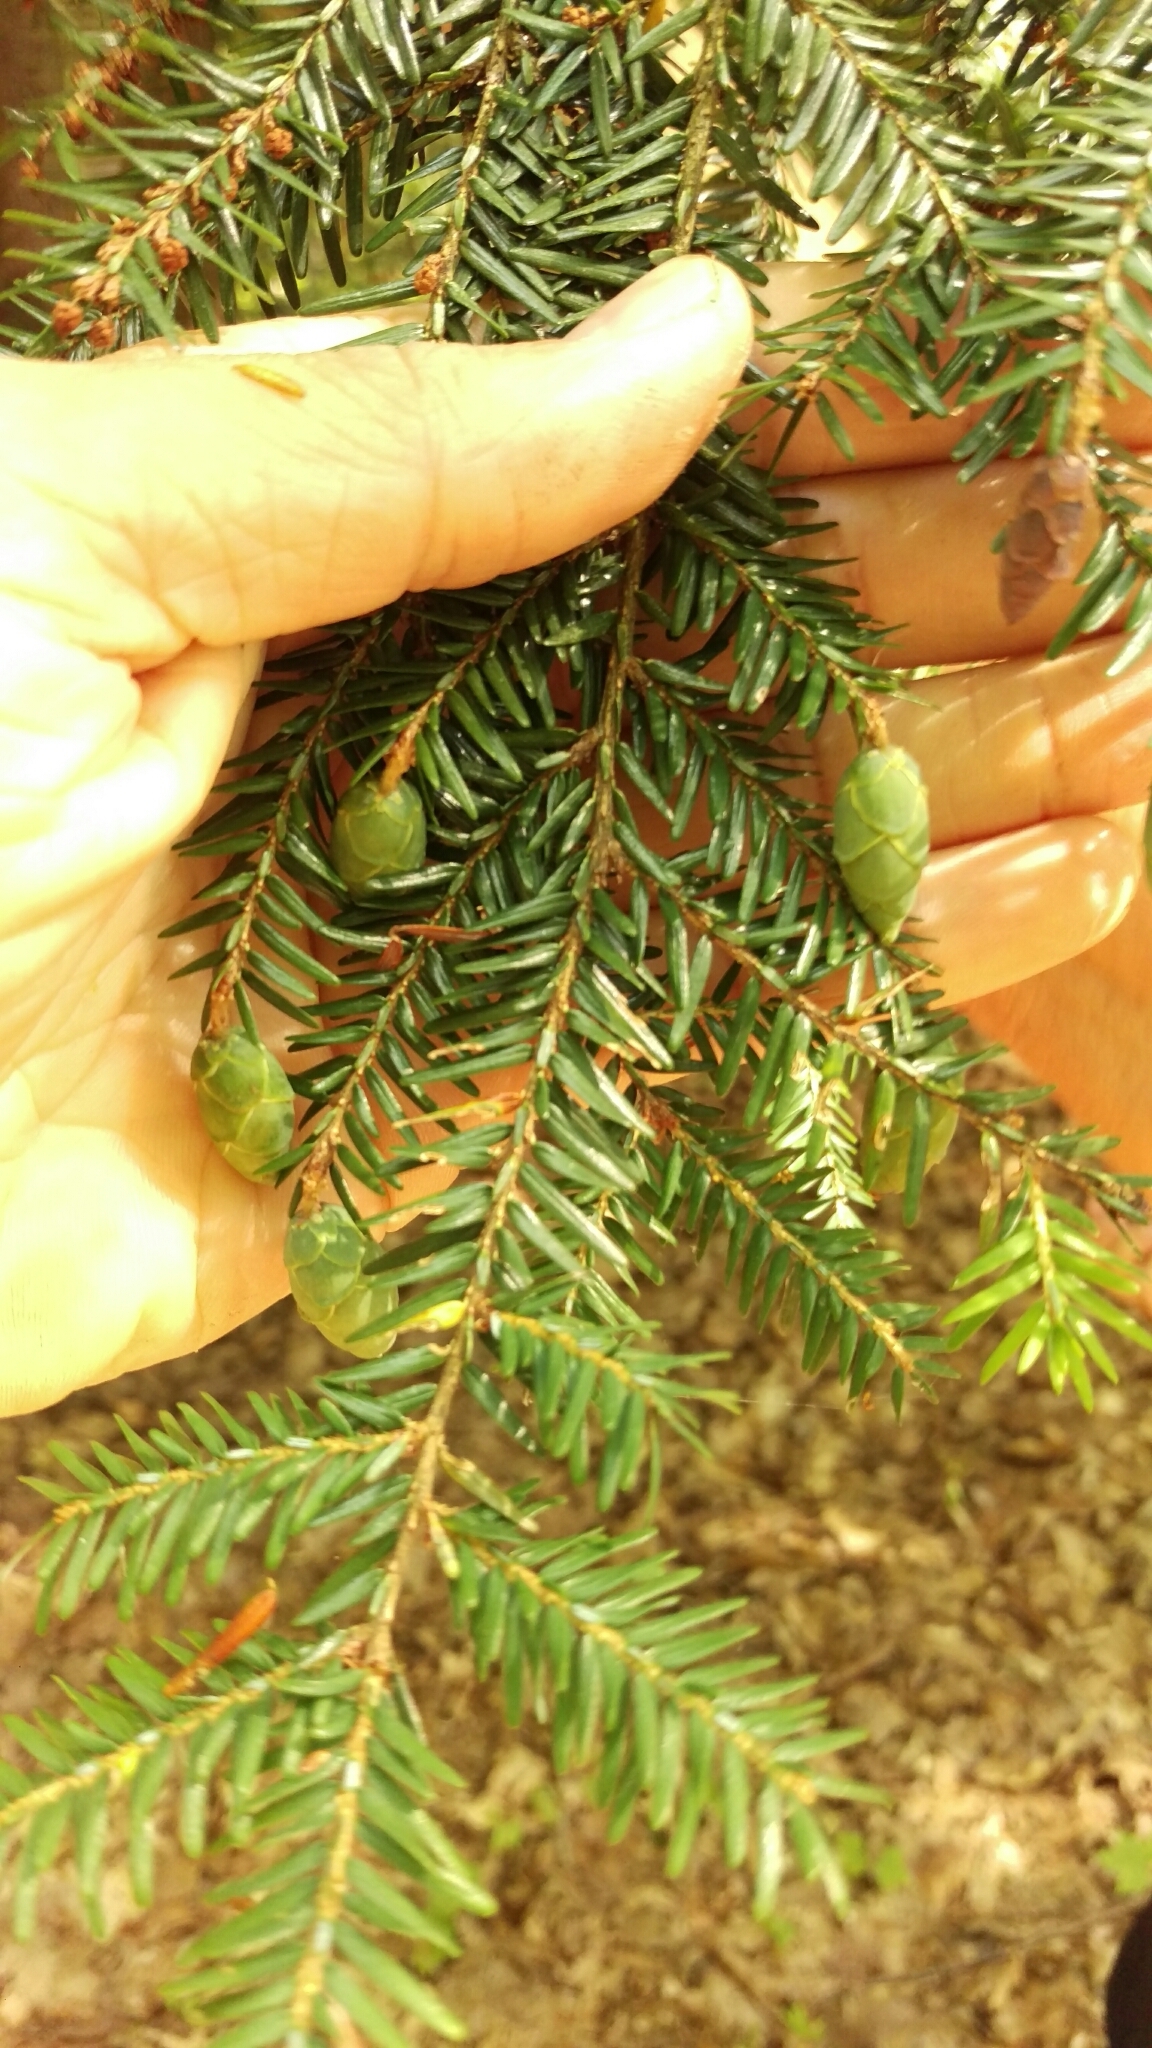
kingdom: Plantae
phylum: Tracheophyta
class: Pinopsida
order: Pinales
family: Pinaceae
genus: Tsuga
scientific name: Tsuga canadensis
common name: Eastern hemlock
